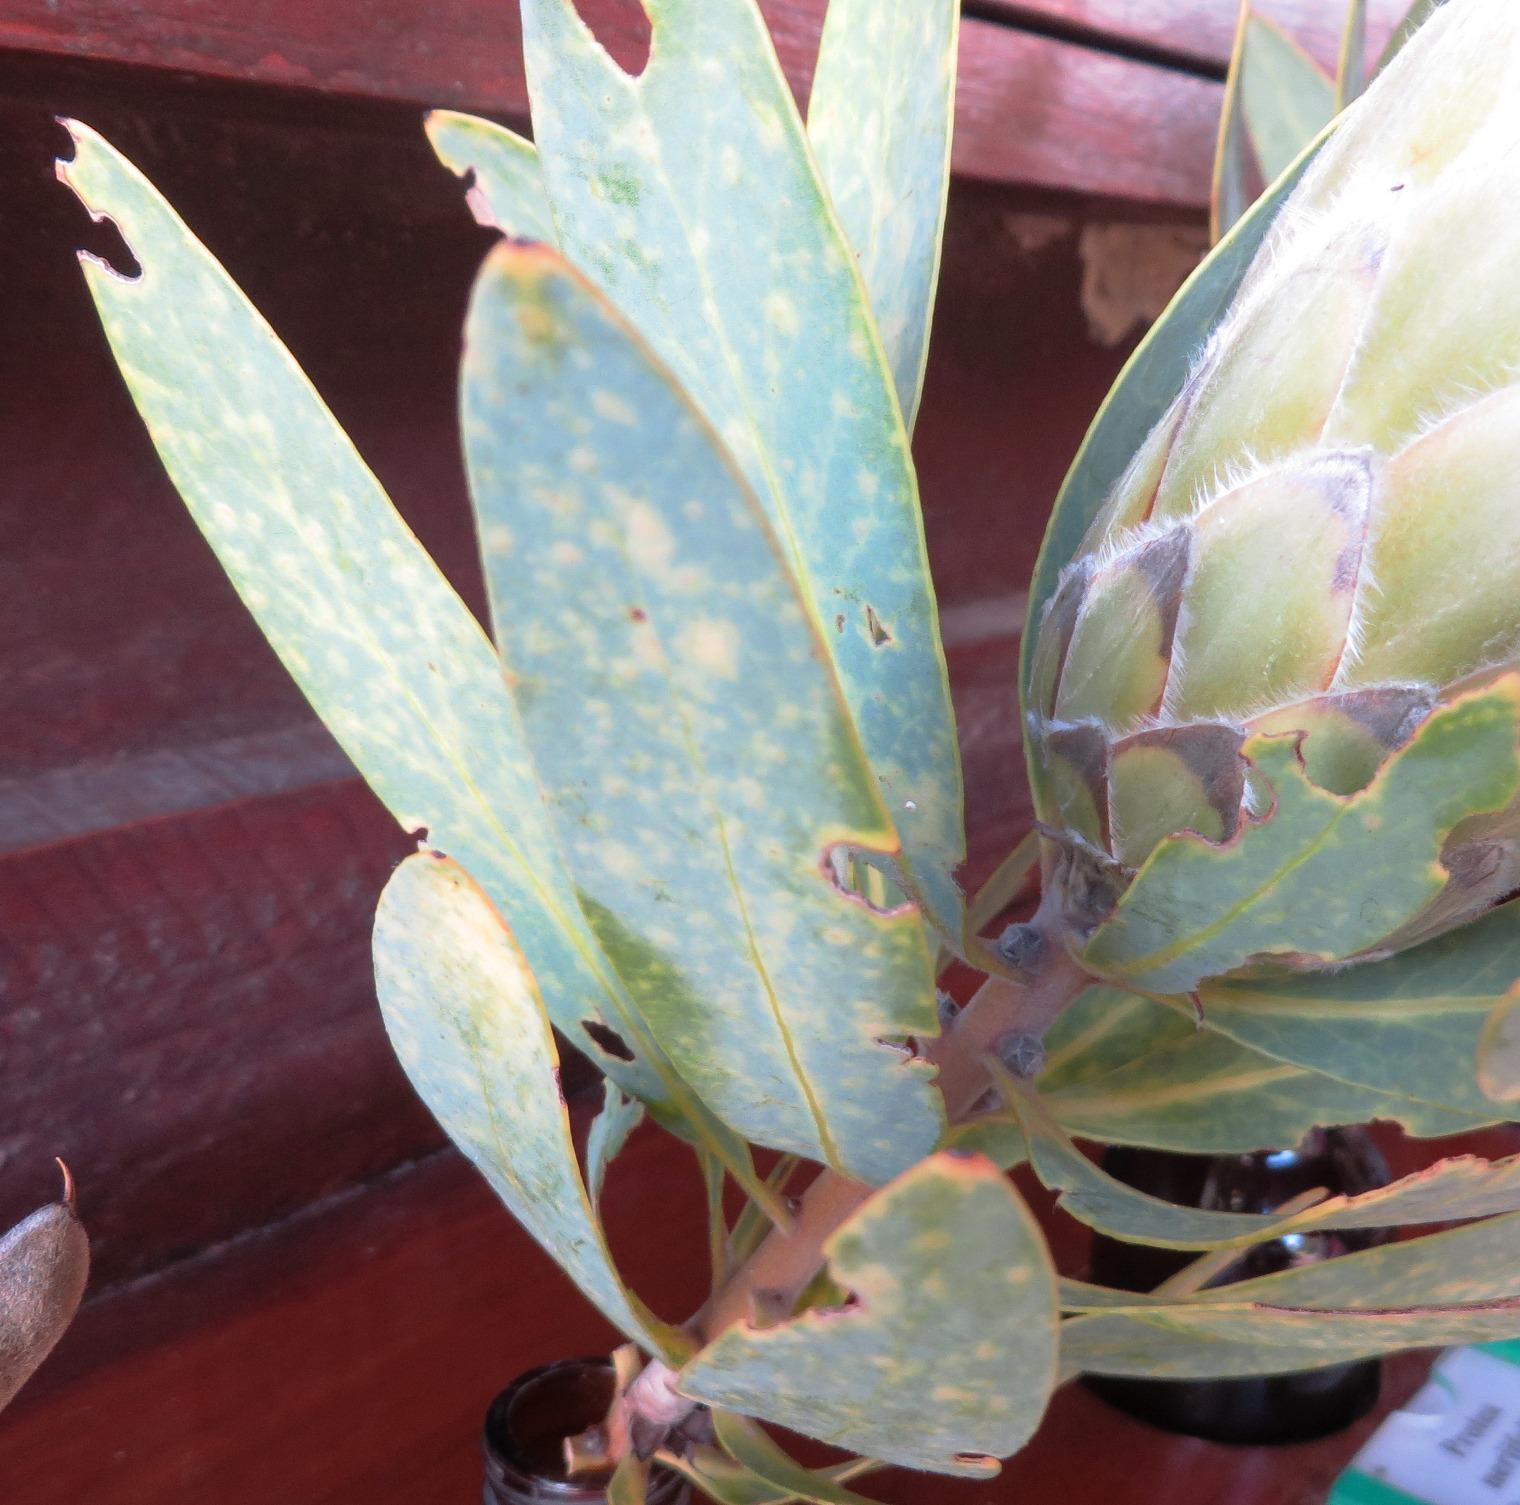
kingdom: Plantae
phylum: Tracheophyta
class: Magnoliopsida
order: Proteales
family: Proteaceae
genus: Protea
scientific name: Protea
